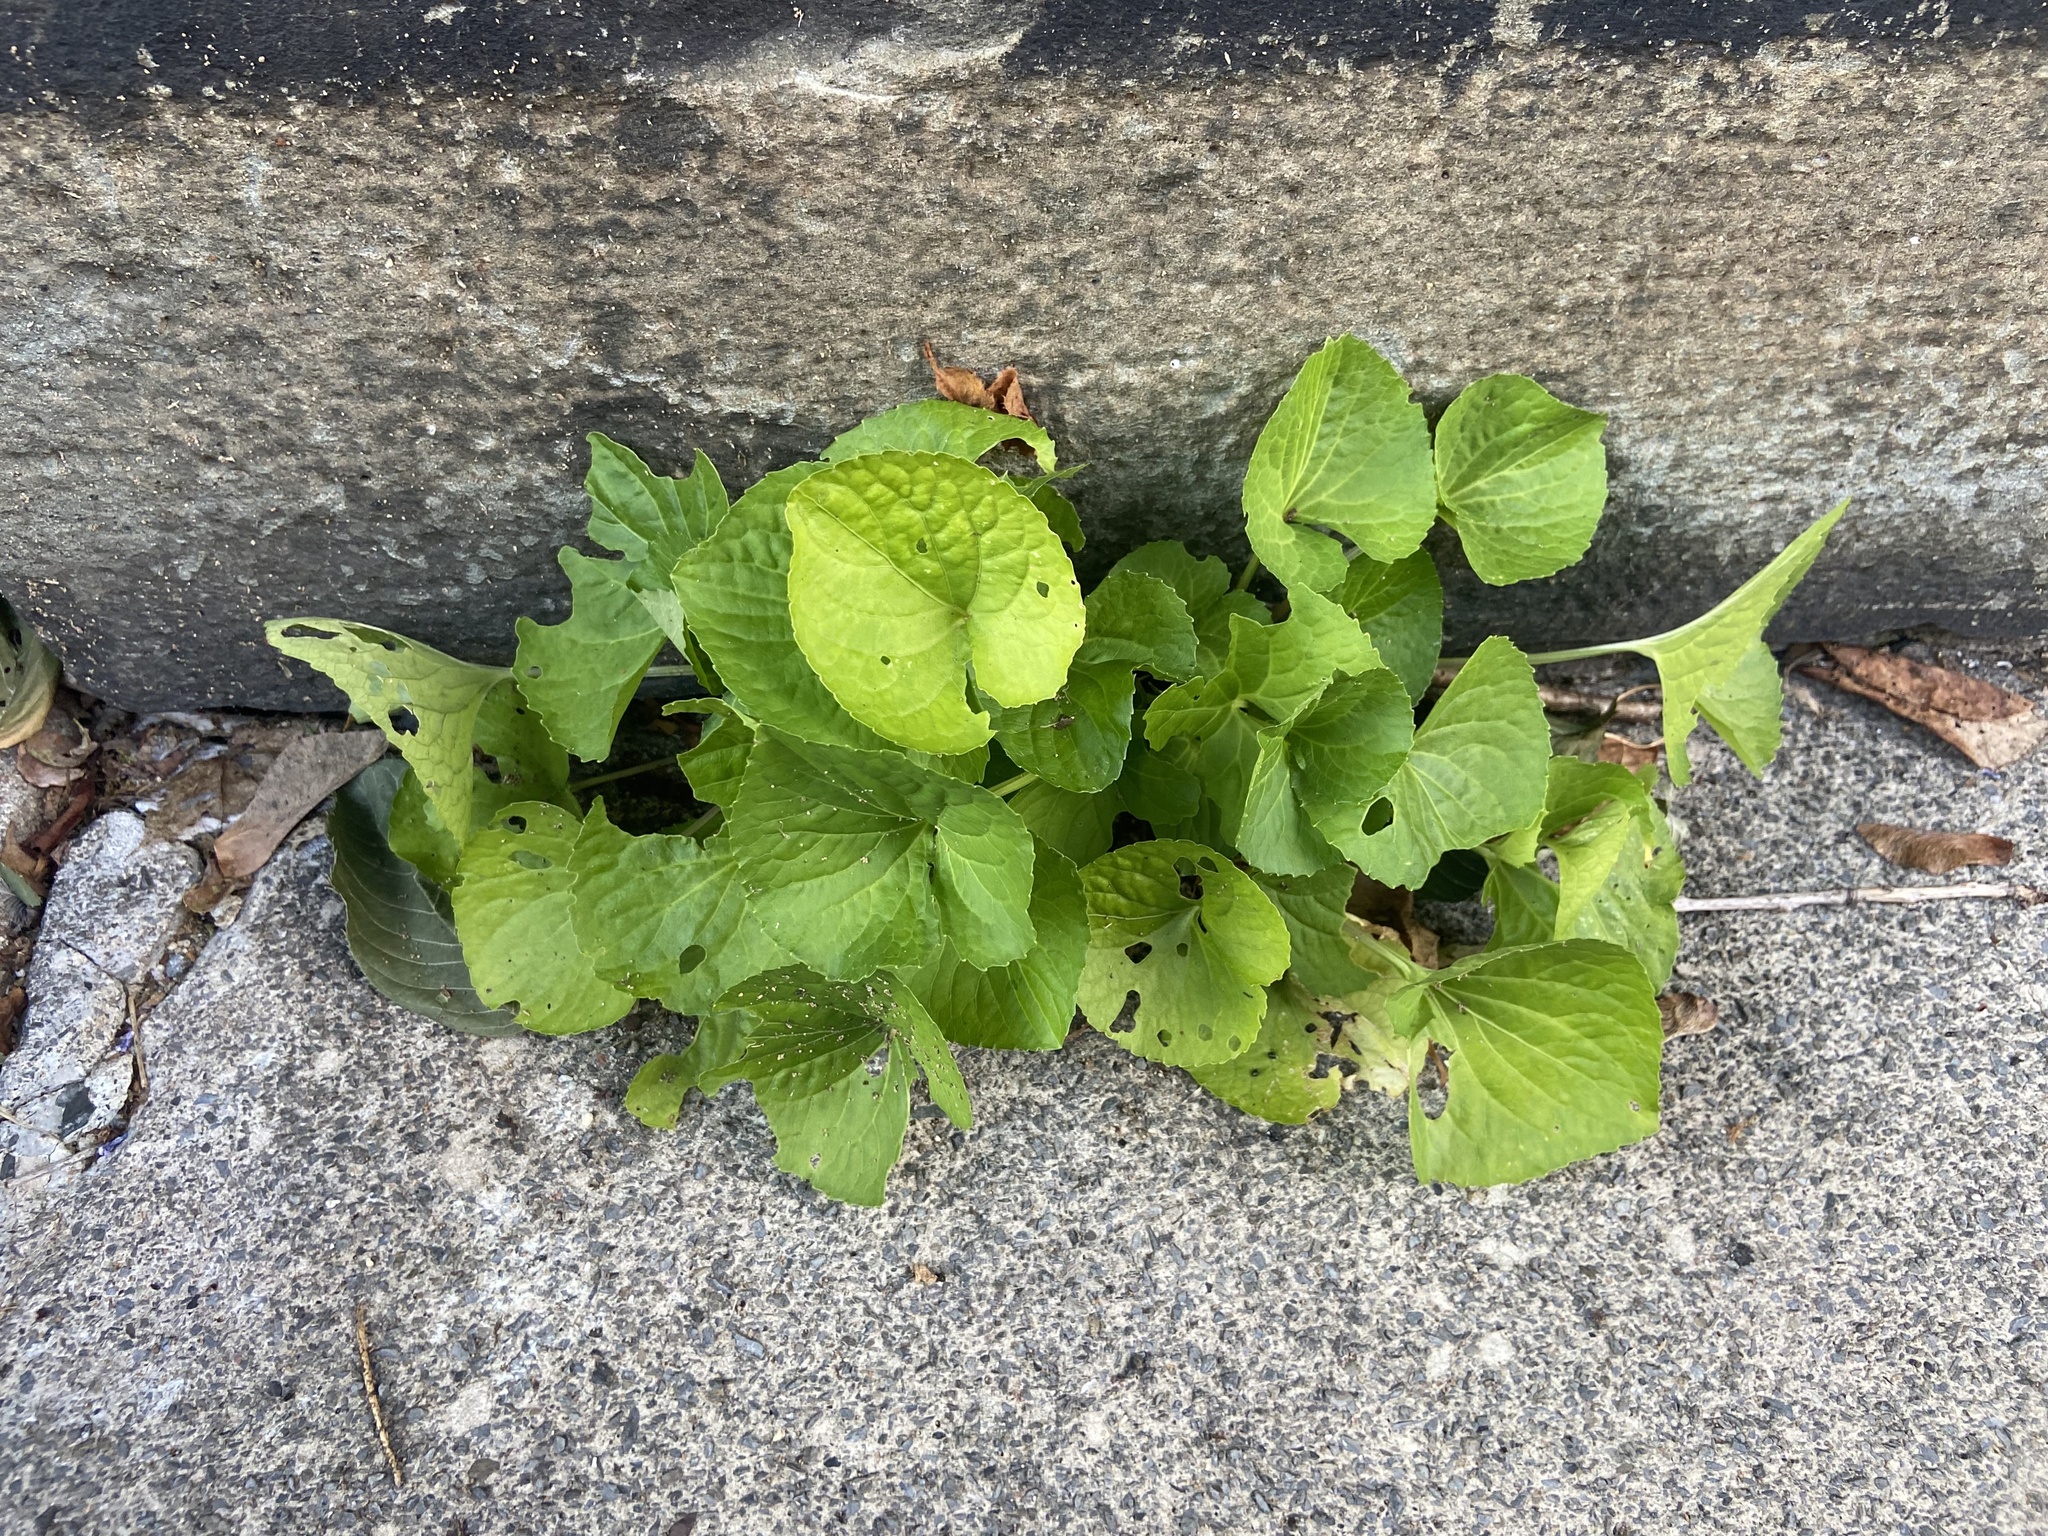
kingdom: Plantae
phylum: Tracheophyta
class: Magnoliopsida
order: Malpighiales
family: Violaceae
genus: Viola
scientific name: Viola sororia
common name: Dooryard violet
